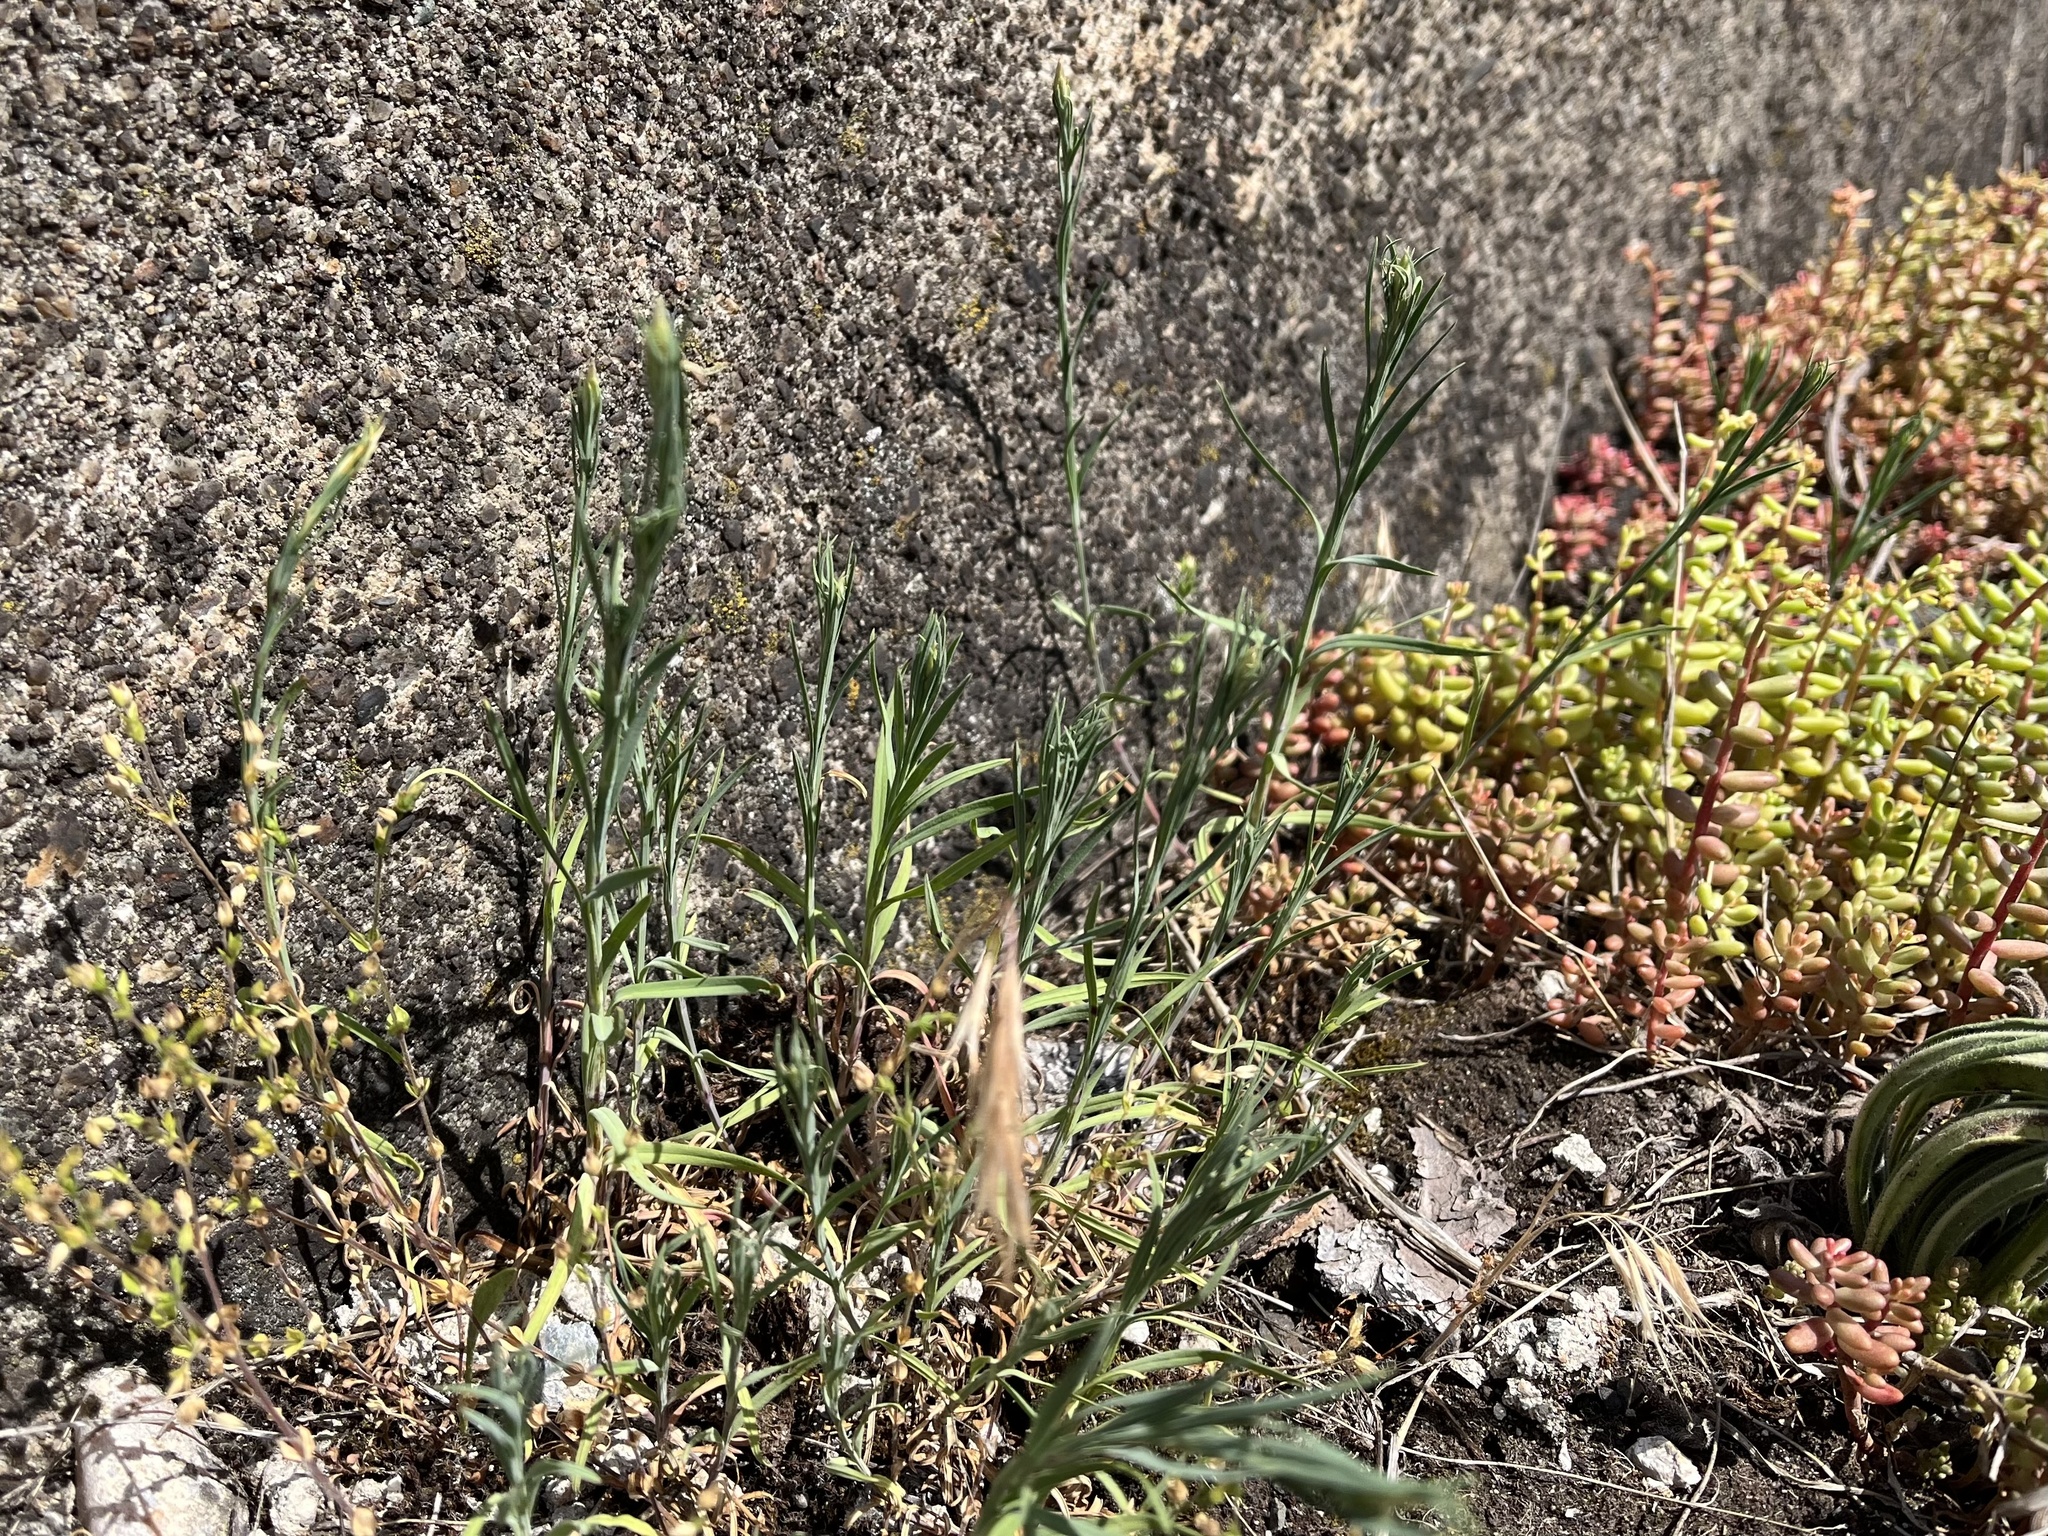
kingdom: Plantae
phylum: Tracheophyta
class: Magnoliopsida
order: Caryophyllales
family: Caryophyllaceae
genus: Petrorhagia
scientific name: Petrorhagia prolifera
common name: Proliferous pink
